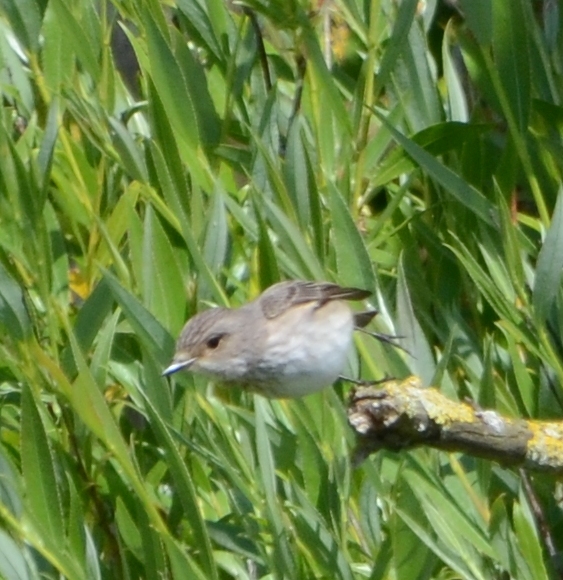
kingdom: Animalia
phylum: Chordata
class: Aves
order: Passeriformes
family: Muscicapidae
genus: Muscicapa
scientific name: Muscicapa striata
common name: Spotted flycatcher
